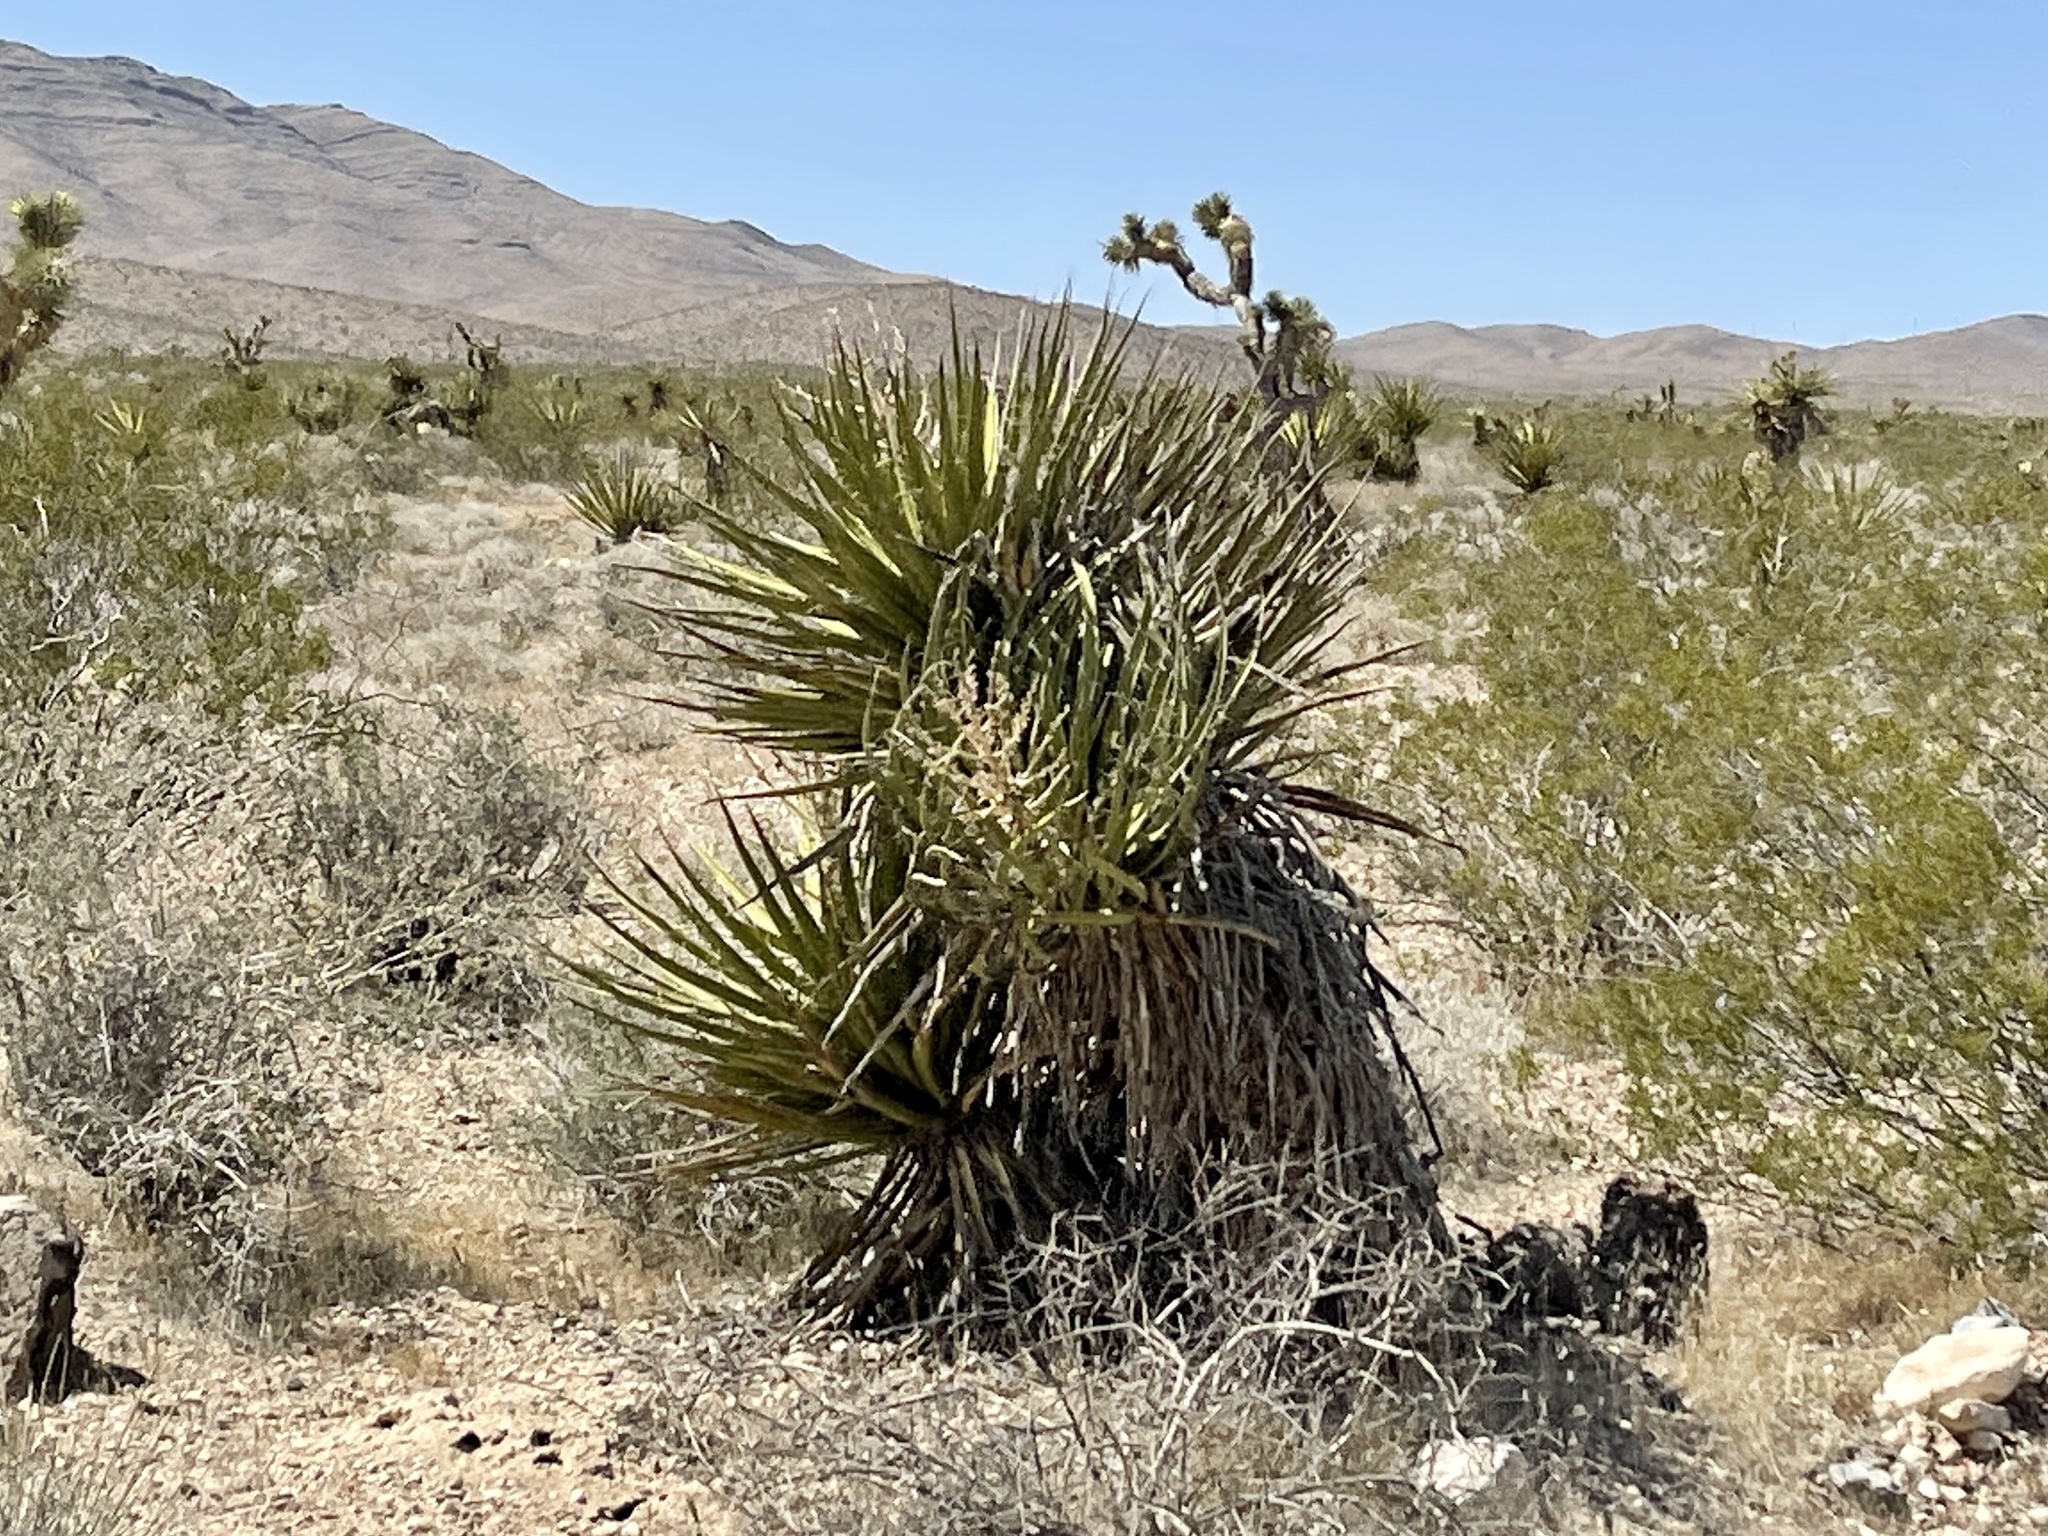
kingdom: Plantae
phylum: Tracheophyta
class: Liliopsida
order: Asparagales
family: Asparagaceae
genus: Yucca
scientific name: Yucca schidigera
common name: Mojave yucca
